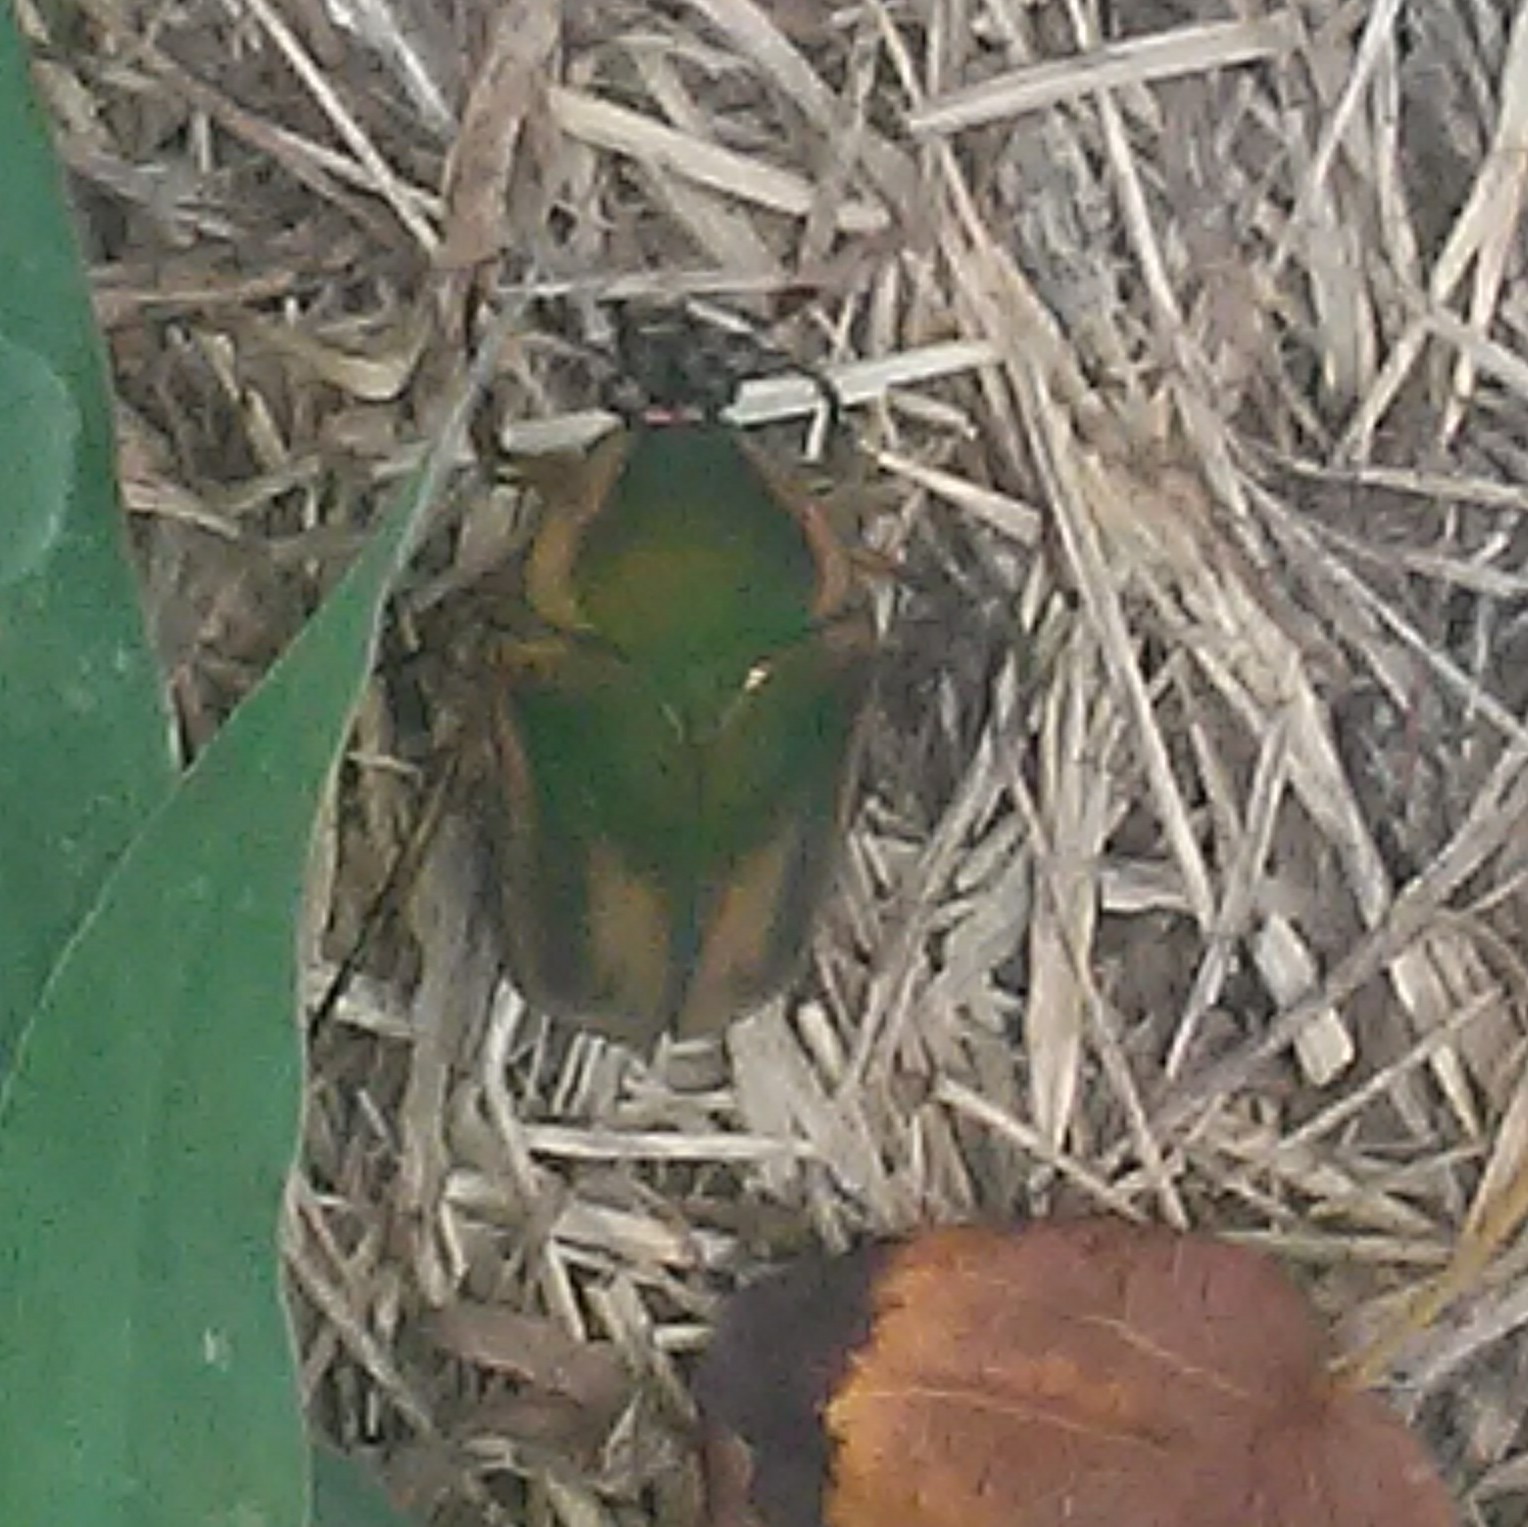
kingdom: Animalia
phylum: Arthropoda
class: Insecta
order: Coleoptera
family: Scarabaeidae
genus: Cotinis
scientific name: Cotinis nitida
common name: Common green june beetle
